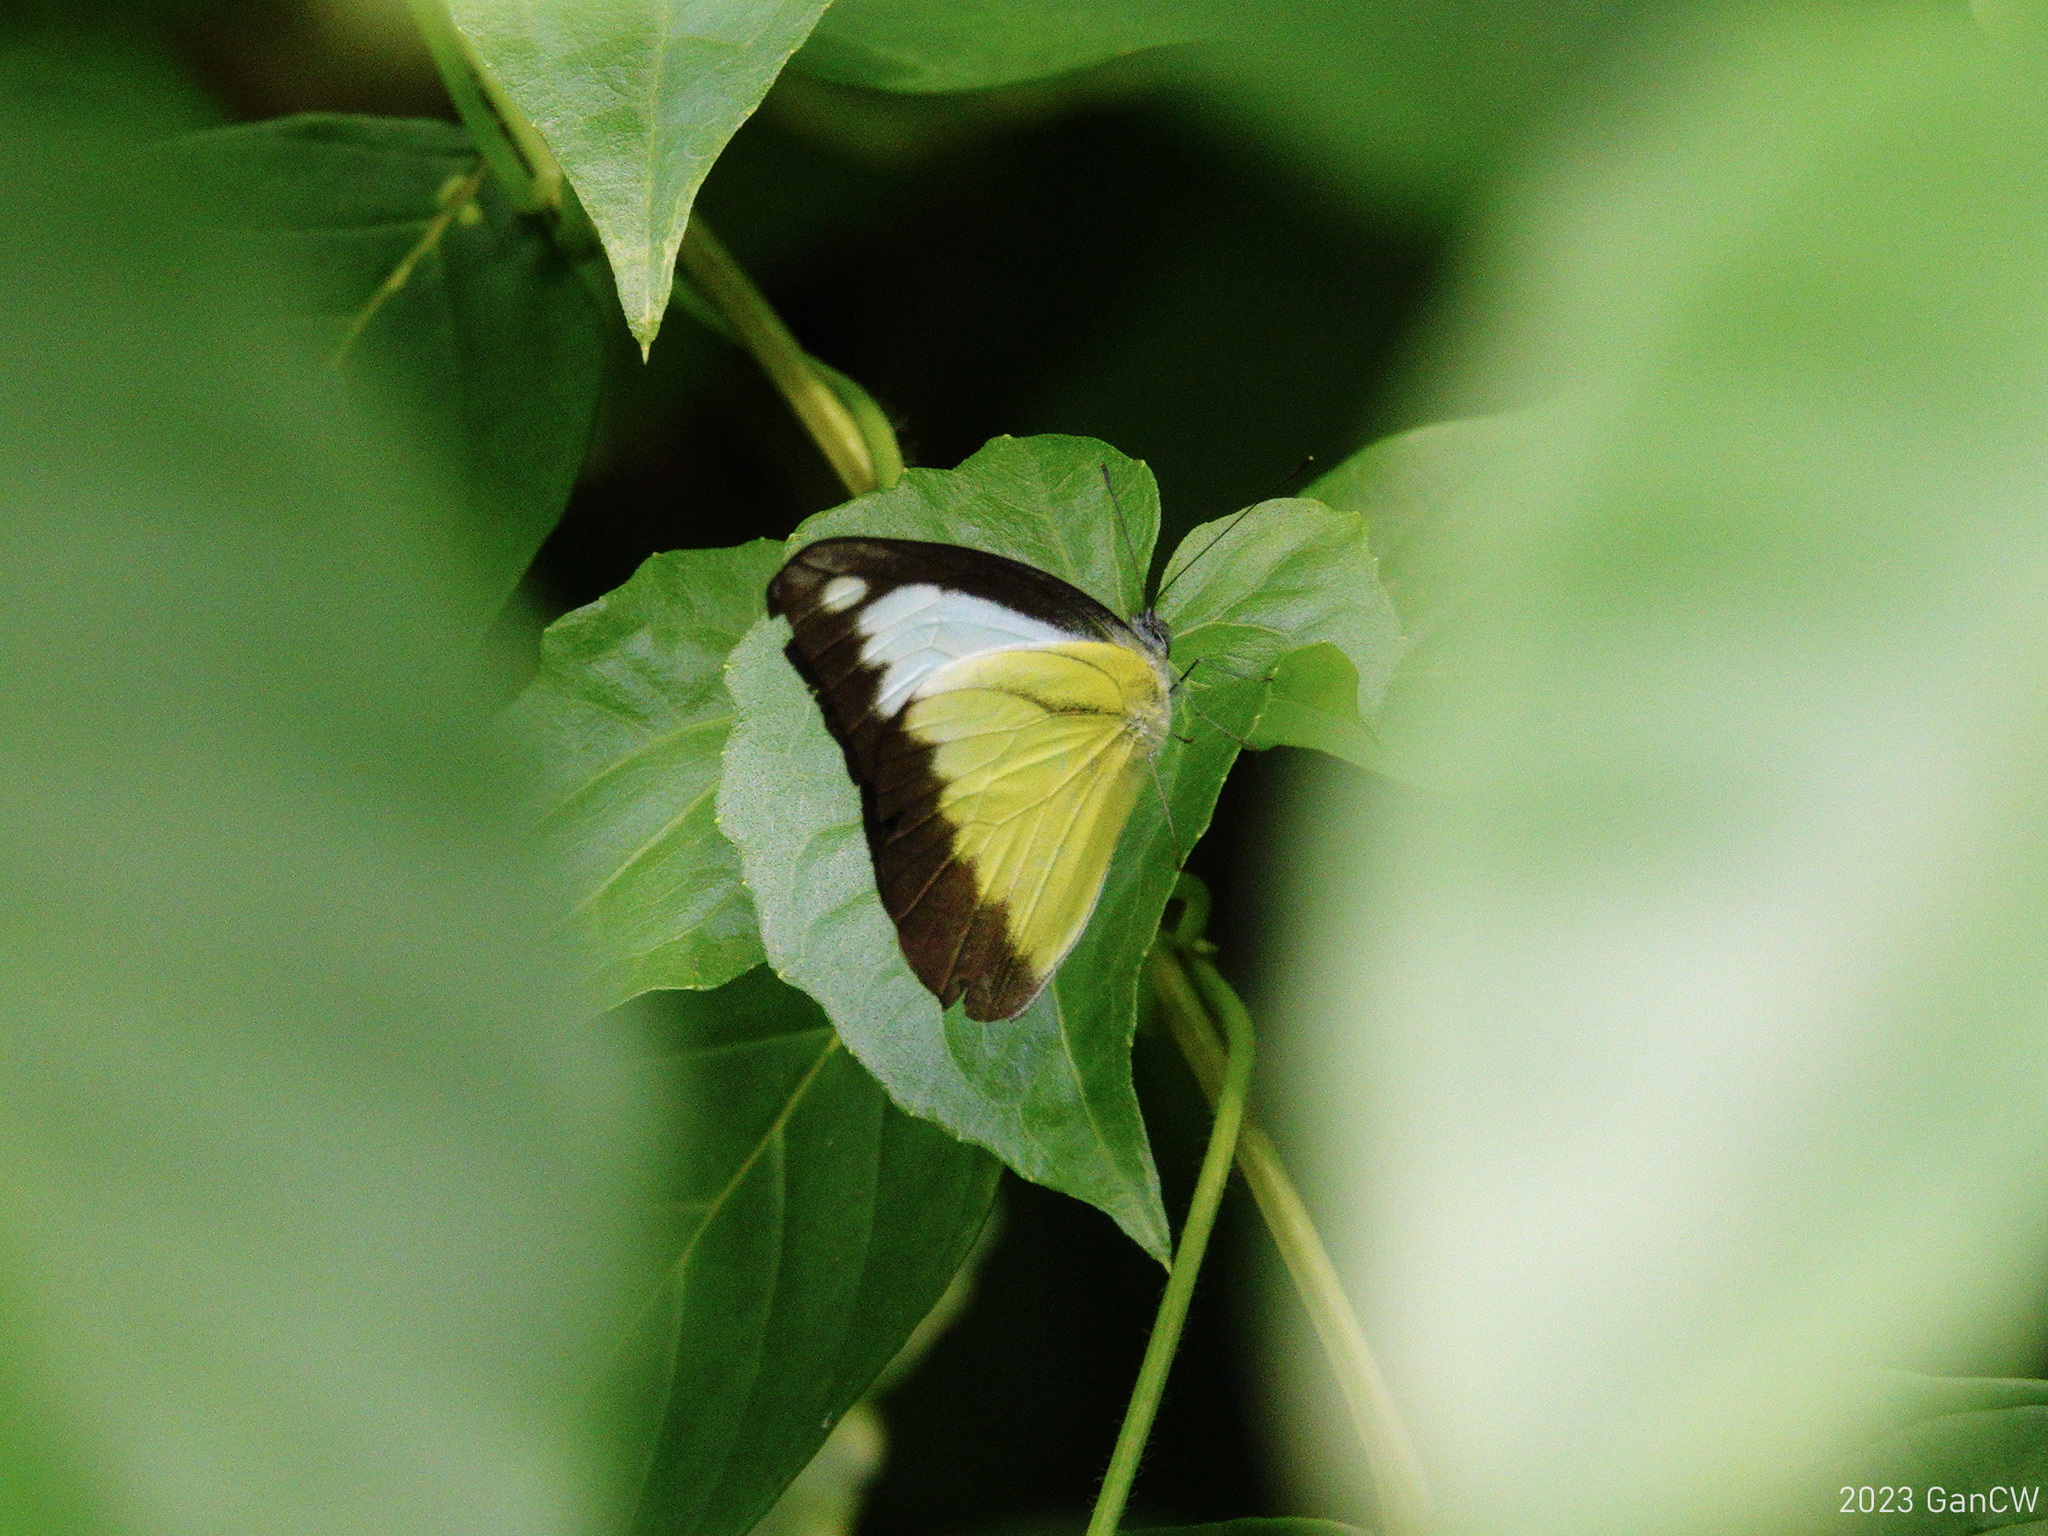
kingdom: Animalia
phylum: Arthropoda
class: Insecta
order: Lepidoptera
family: Pieridae
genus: Appias
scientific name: Appias lyncida
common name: Chocolate albatross
